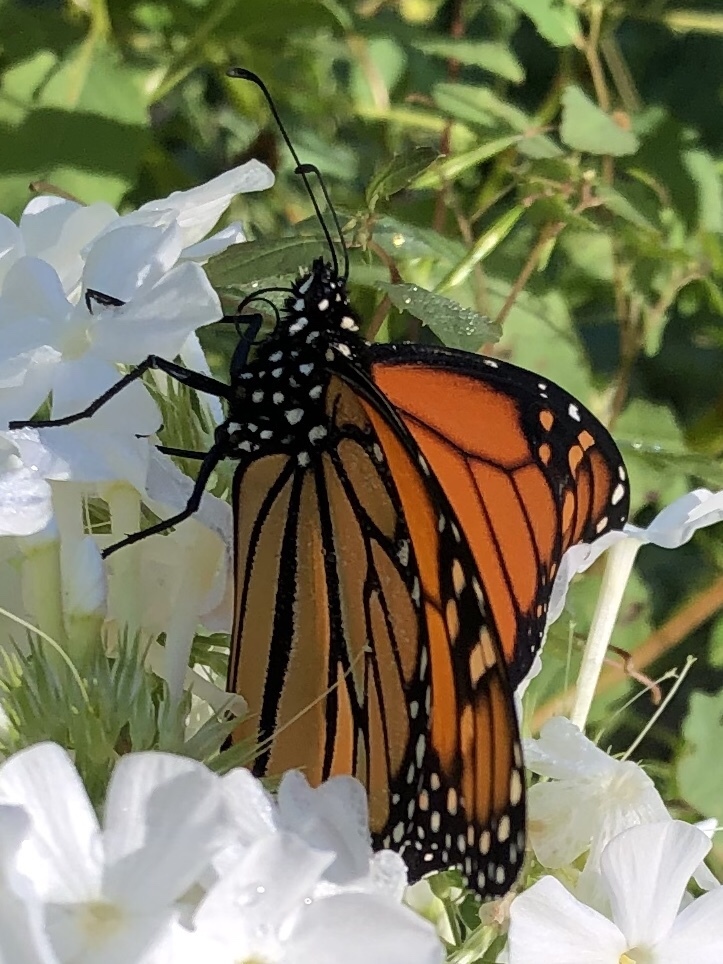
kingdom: Animalia
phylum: Arthropoda
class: Insecta
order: Lepidoptera
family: Nymphalidae
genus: Danaus
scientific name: Danaus plexippus
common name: Monarch
